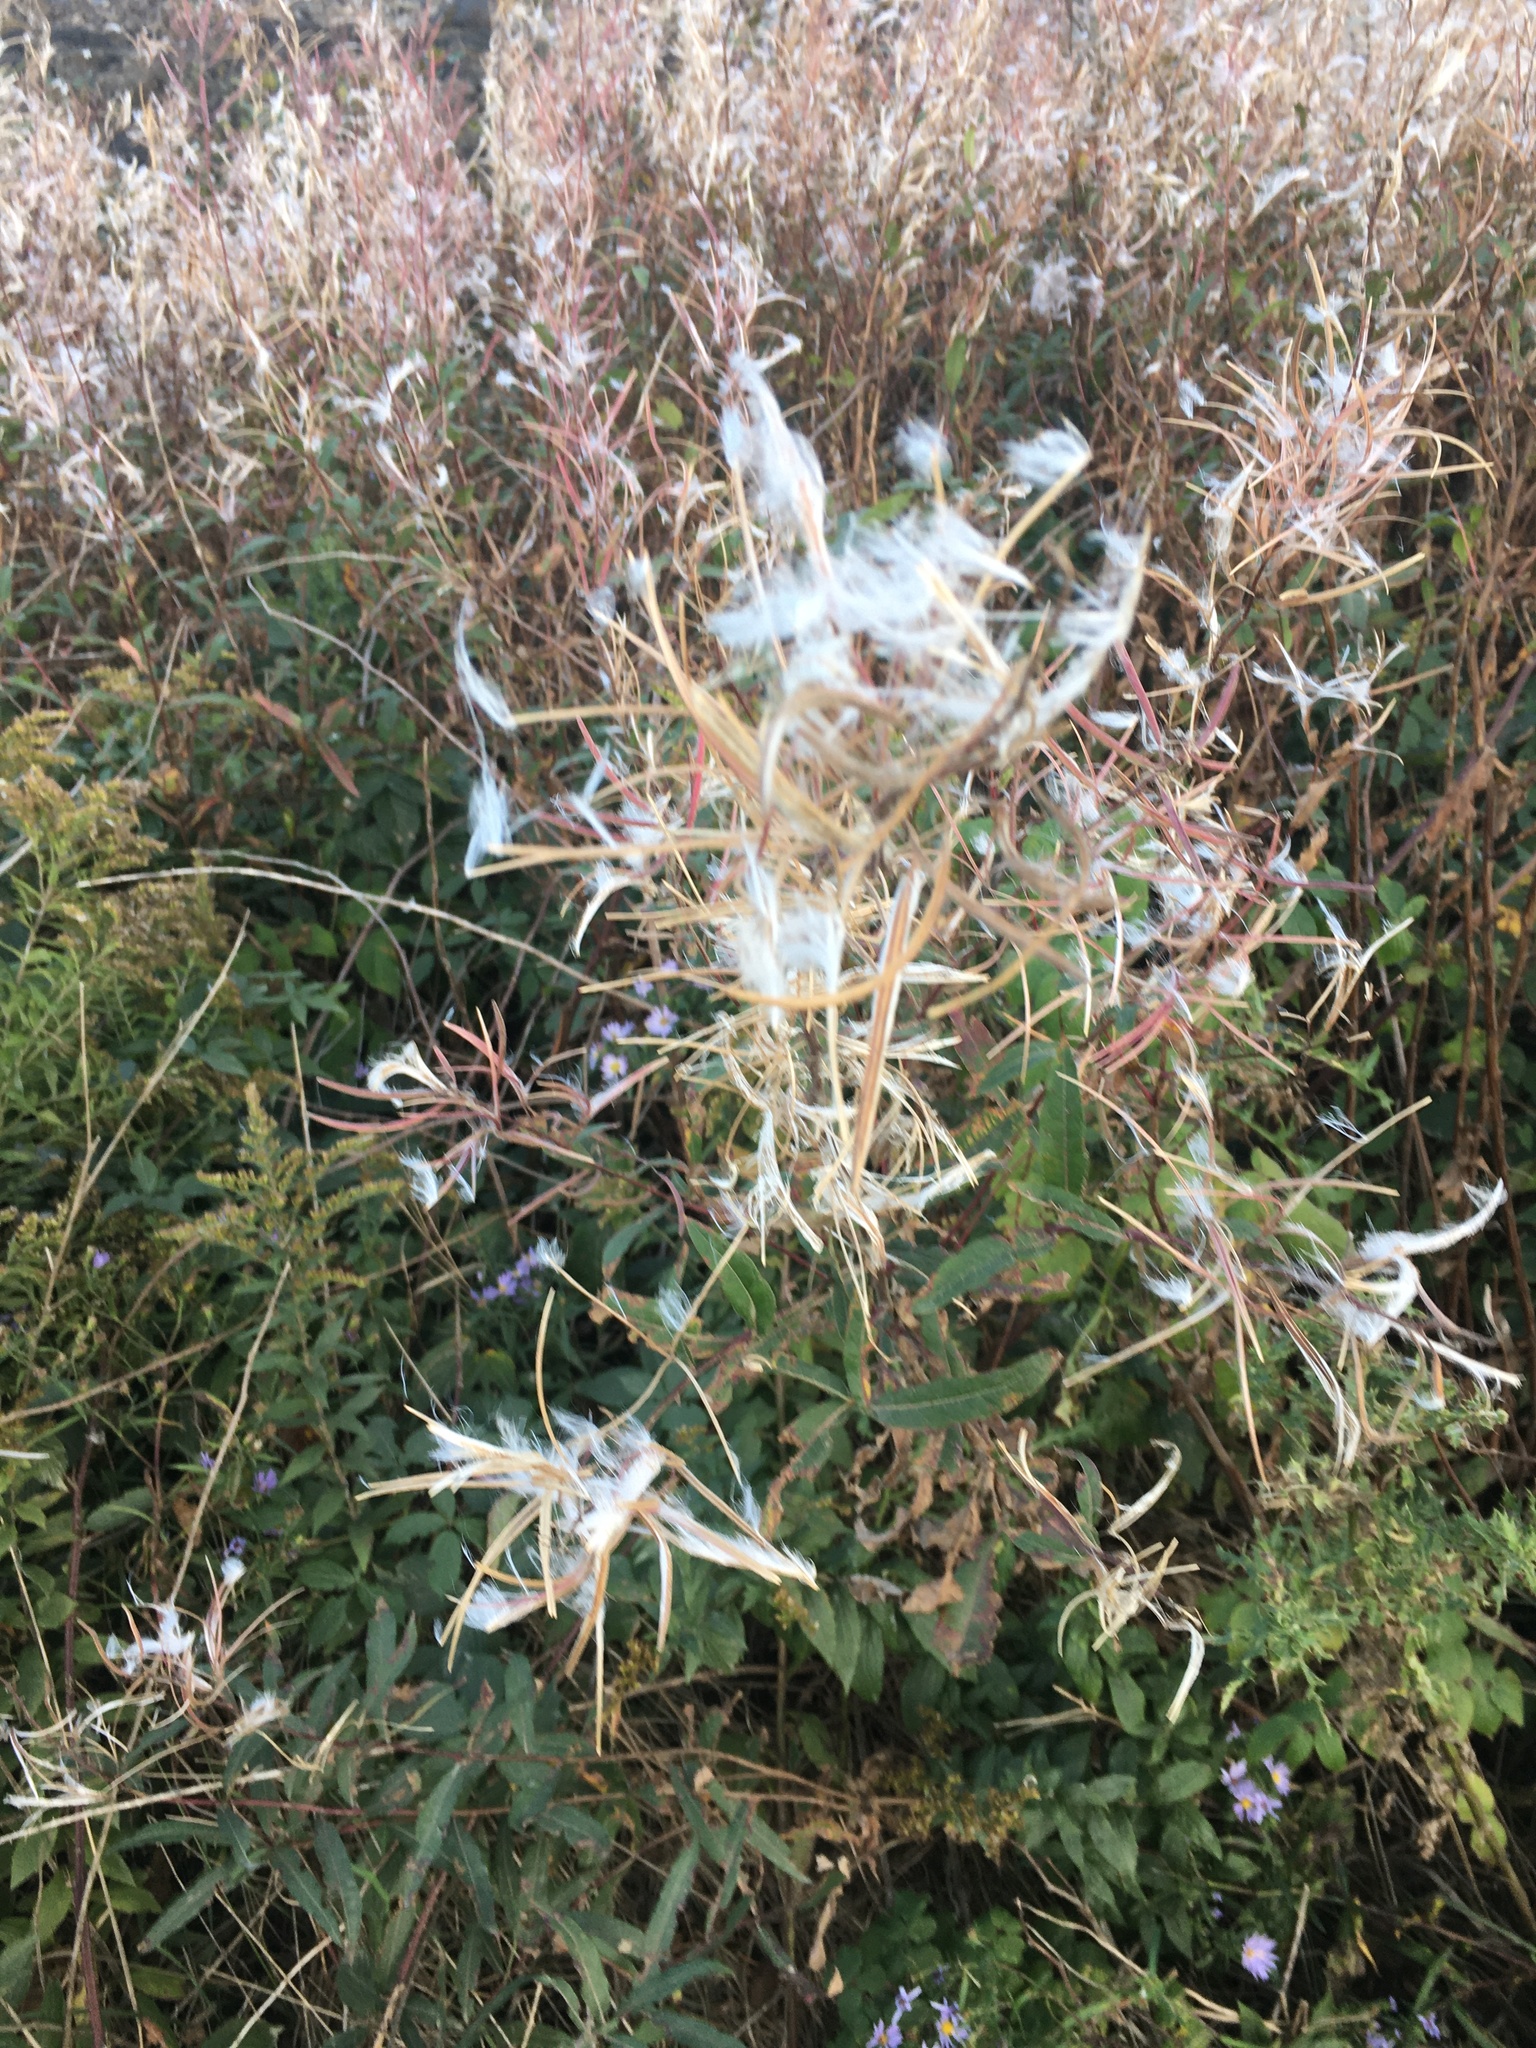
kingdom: Plantae
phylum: Tracheophyta
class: Magnoliopsida
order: Myrtales
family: Onagraceae
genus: Chamaenerion
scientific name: Chamaenerion angustifolium
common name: Fireweed
